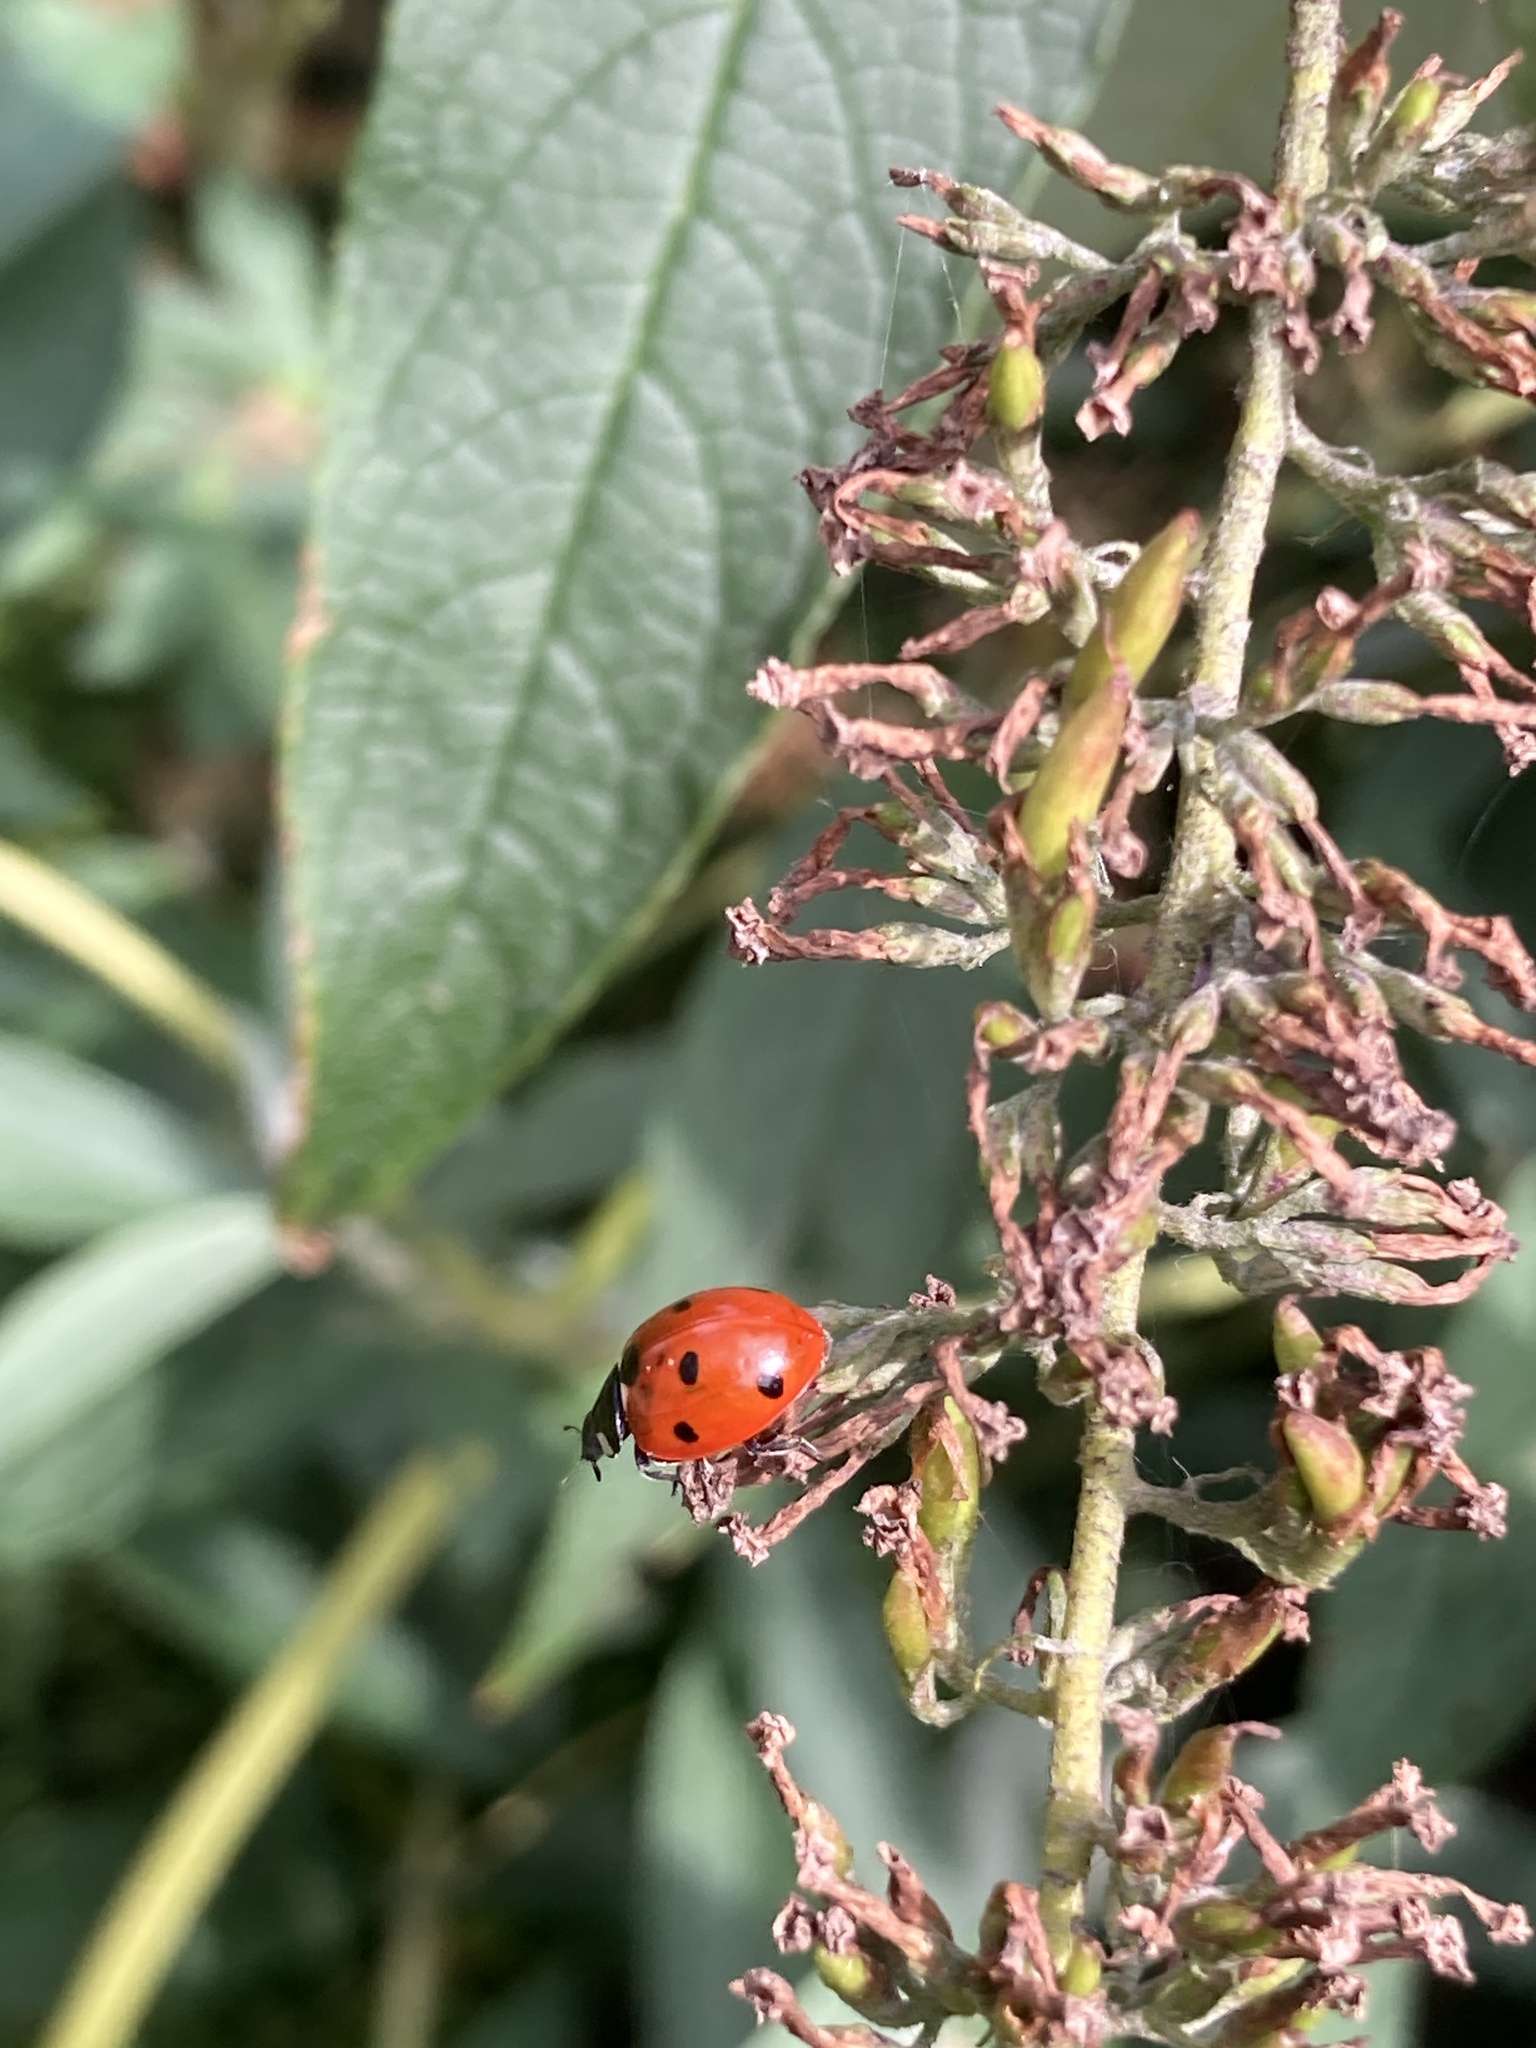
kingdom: Animalia
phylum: Arthropoda
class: Insecta
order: Coleoptera
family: Coccinellidae
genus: Coccinella
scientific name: Coccinella septempunctata
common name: Sevenspotted lady beetle
